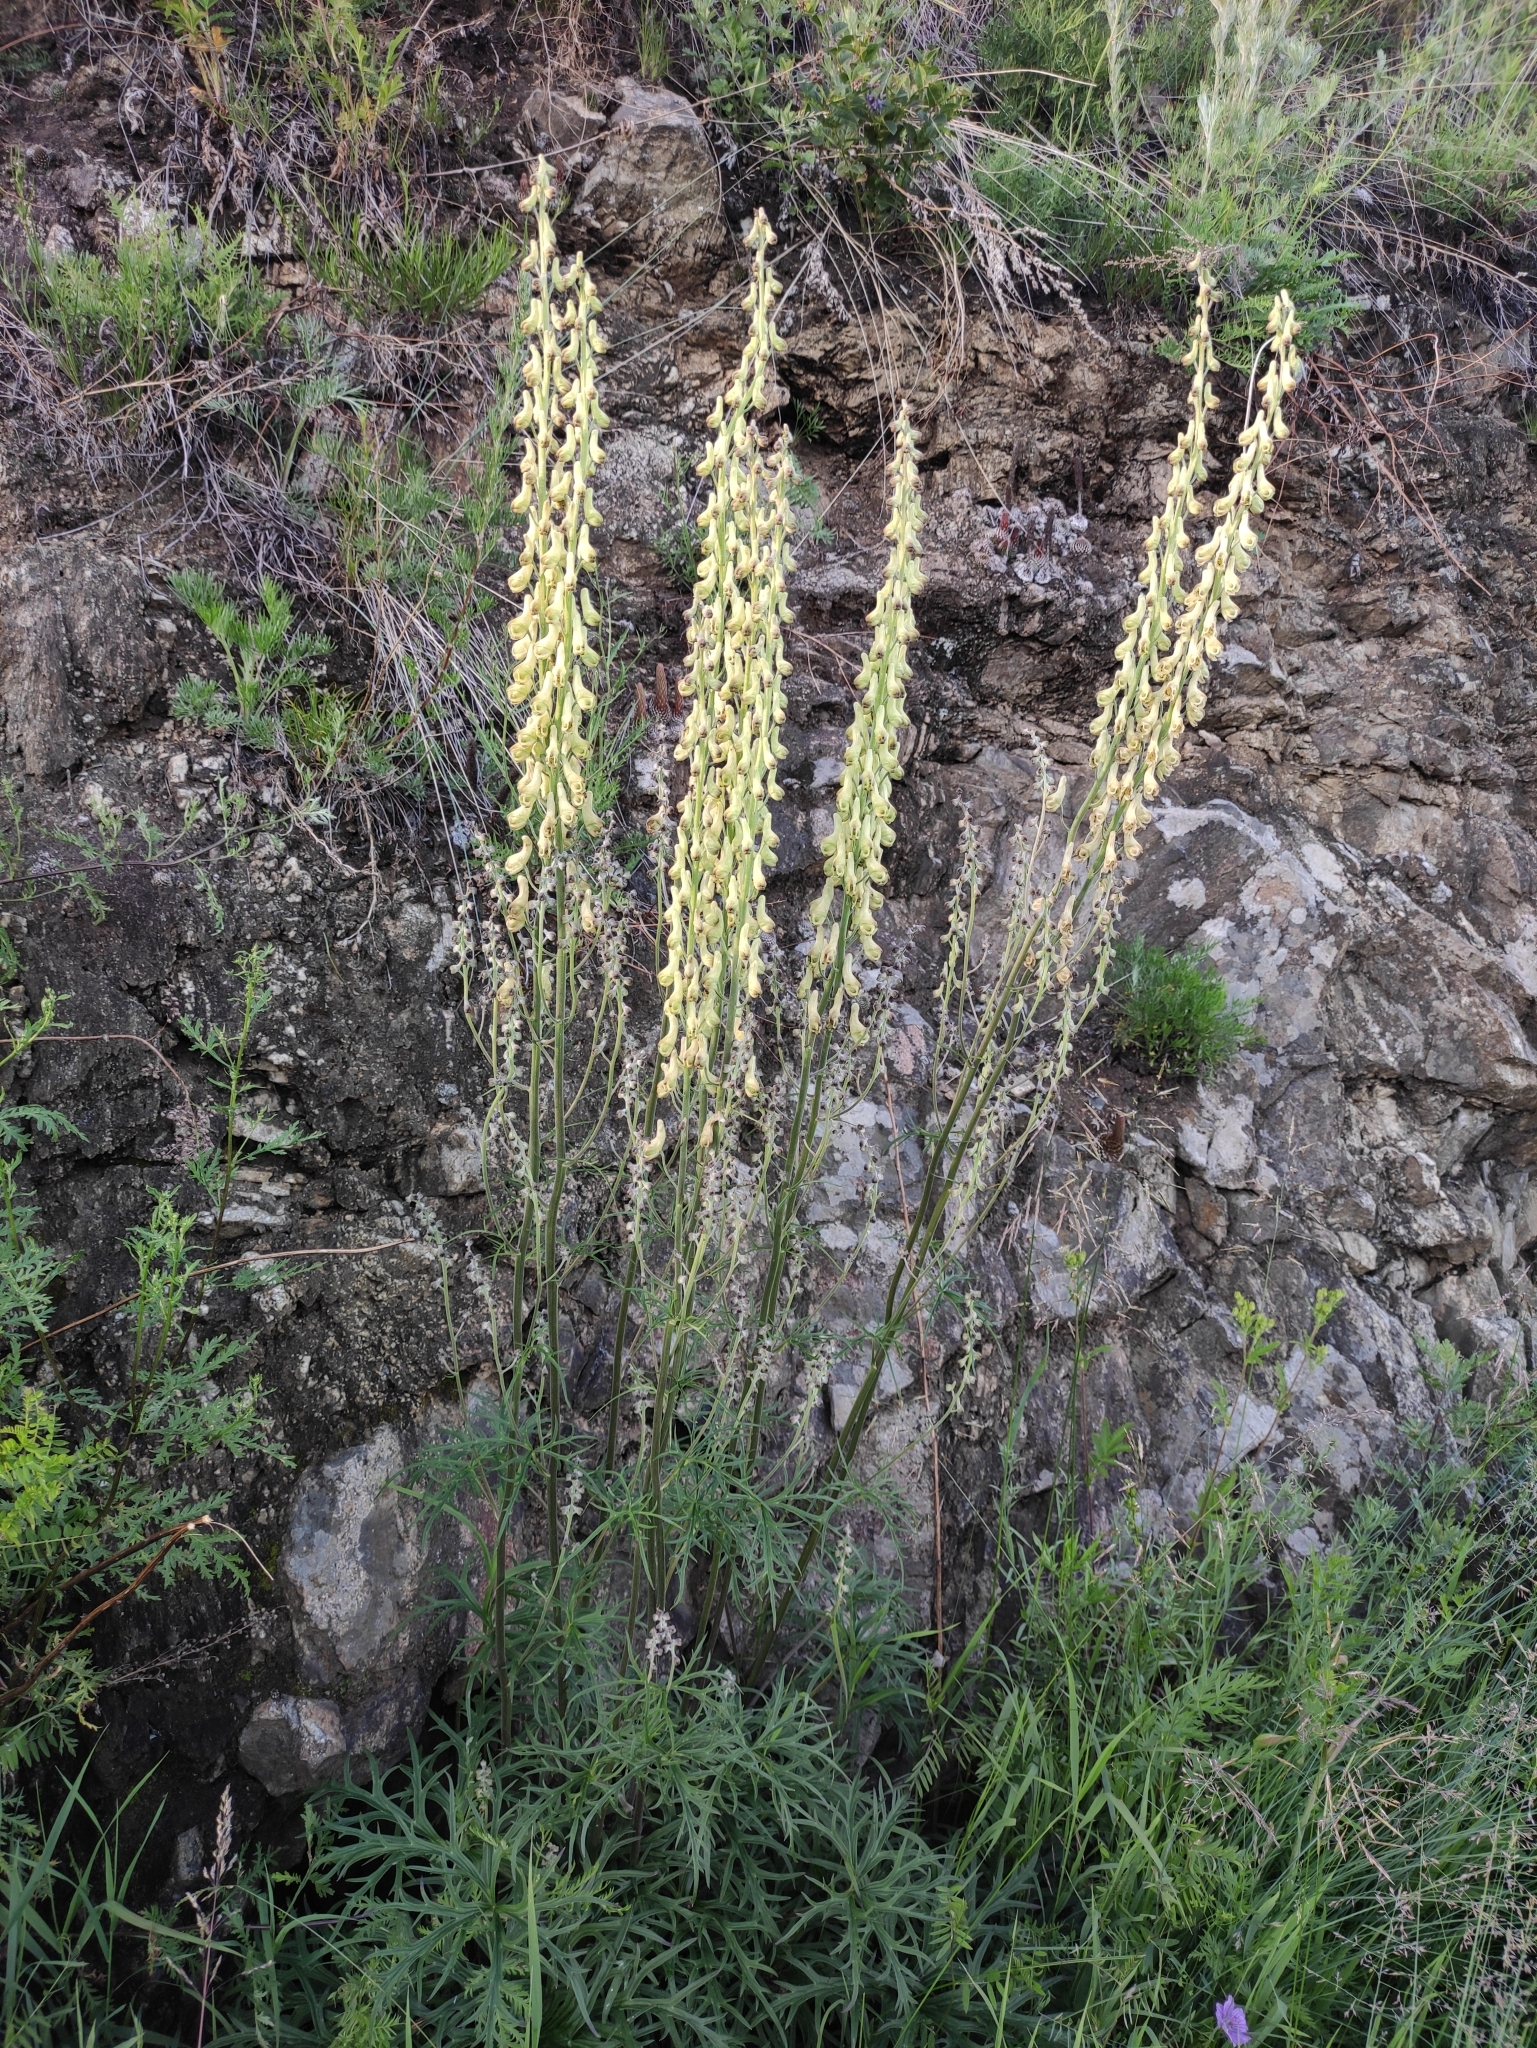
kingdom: Plantae
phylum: Tracheophyta
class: Magnoliopsida
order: Ranunculales
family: Ranunculaceae
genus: Aconitum
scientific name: Aconitum barbatum
